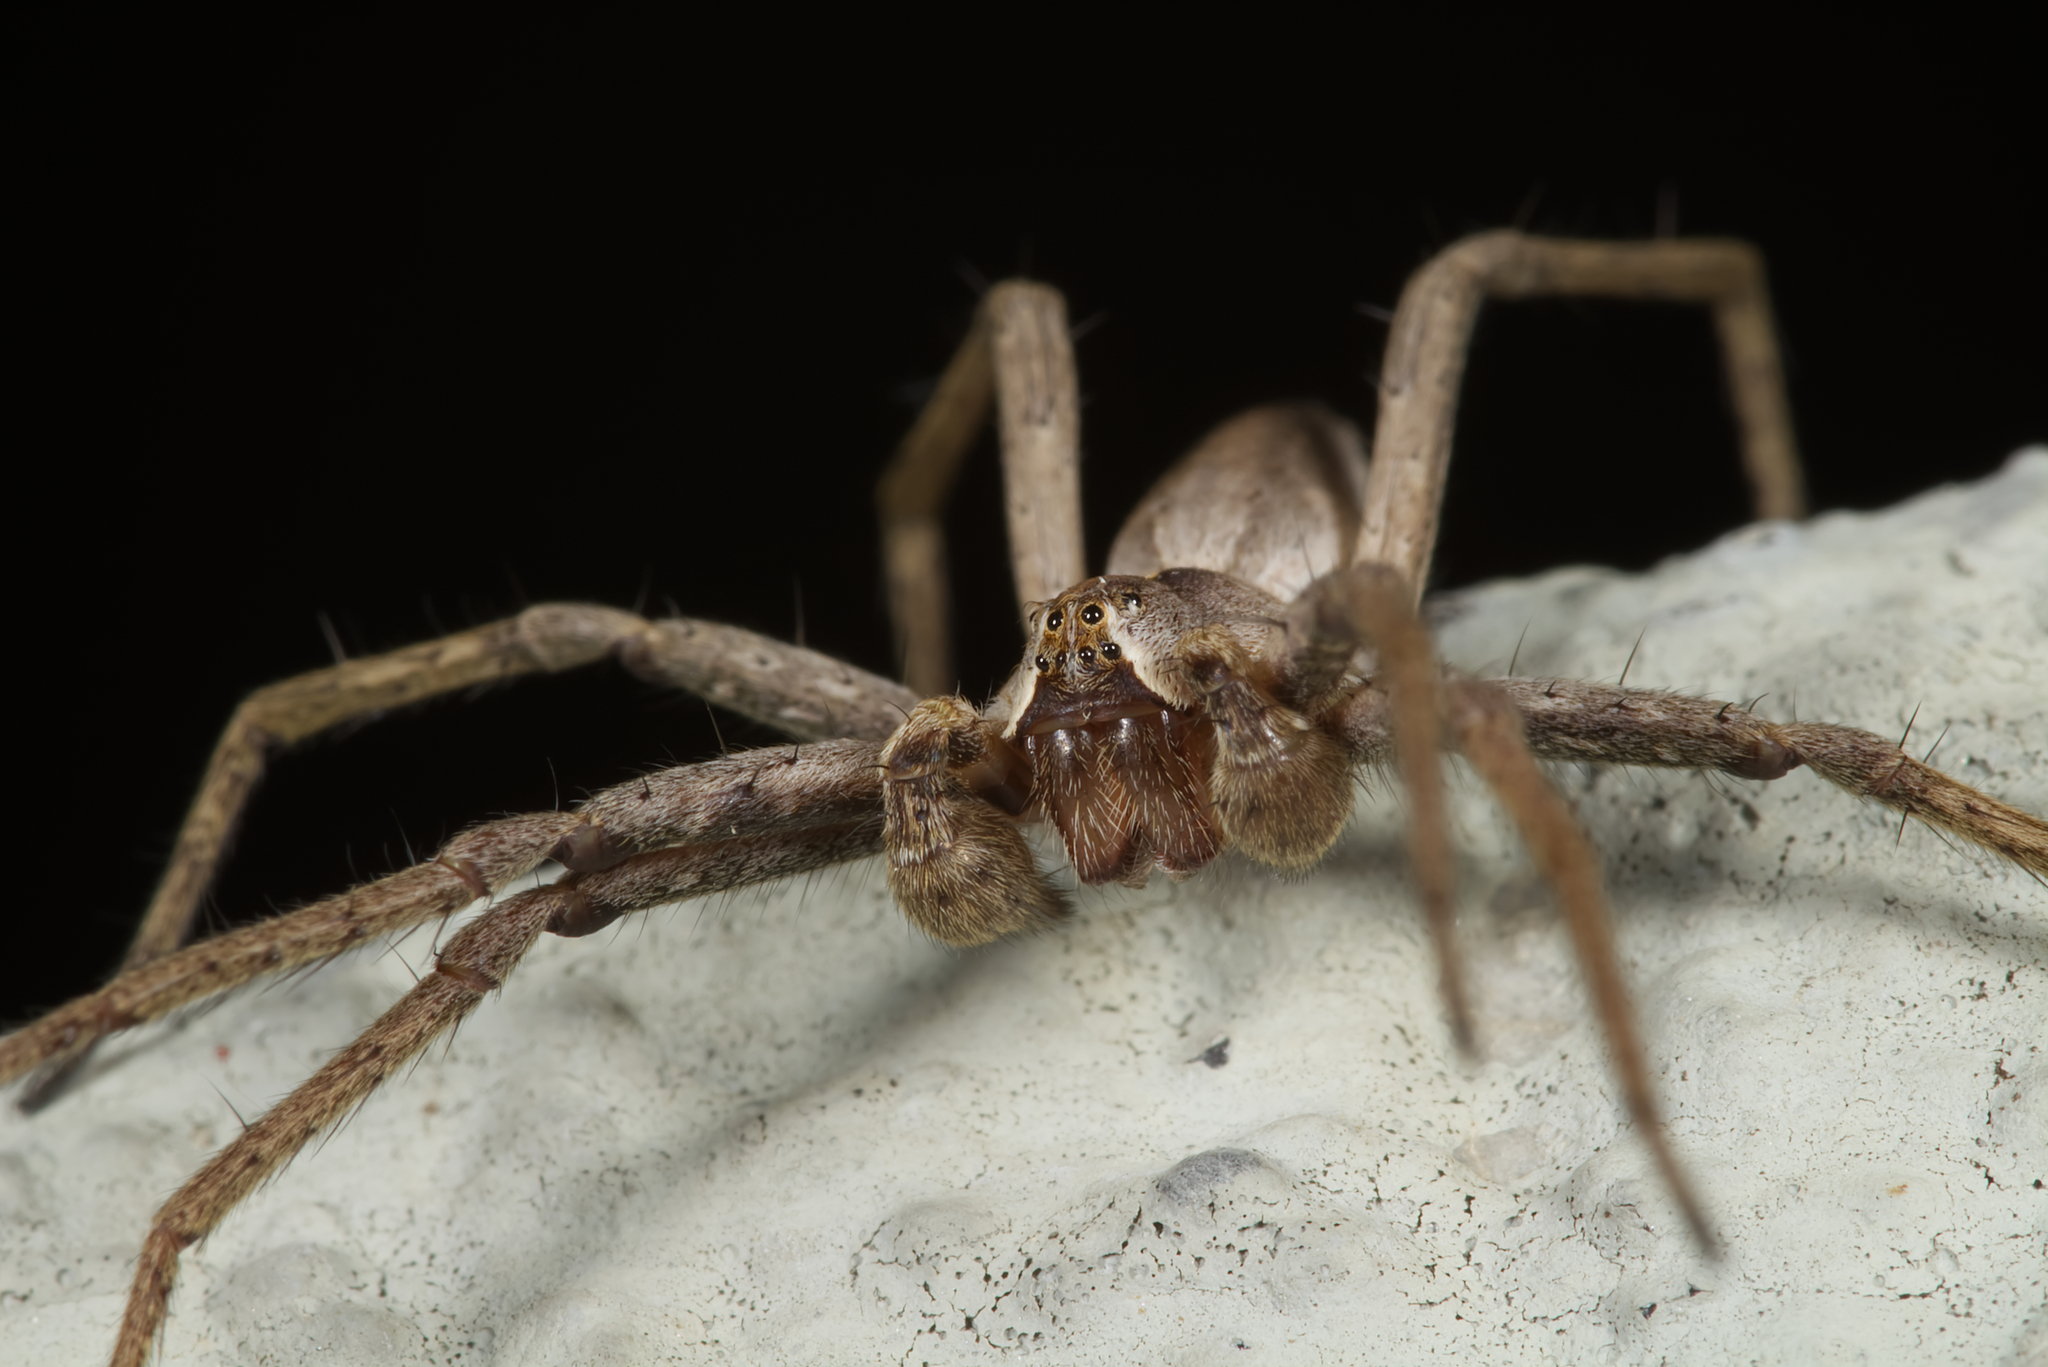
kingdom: Animalia
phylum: Arthropoda
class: Arachnida
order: Araneae
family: Pisauridae
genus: Pisaura
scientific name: Pisaura mirabilis
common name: Tent spider
